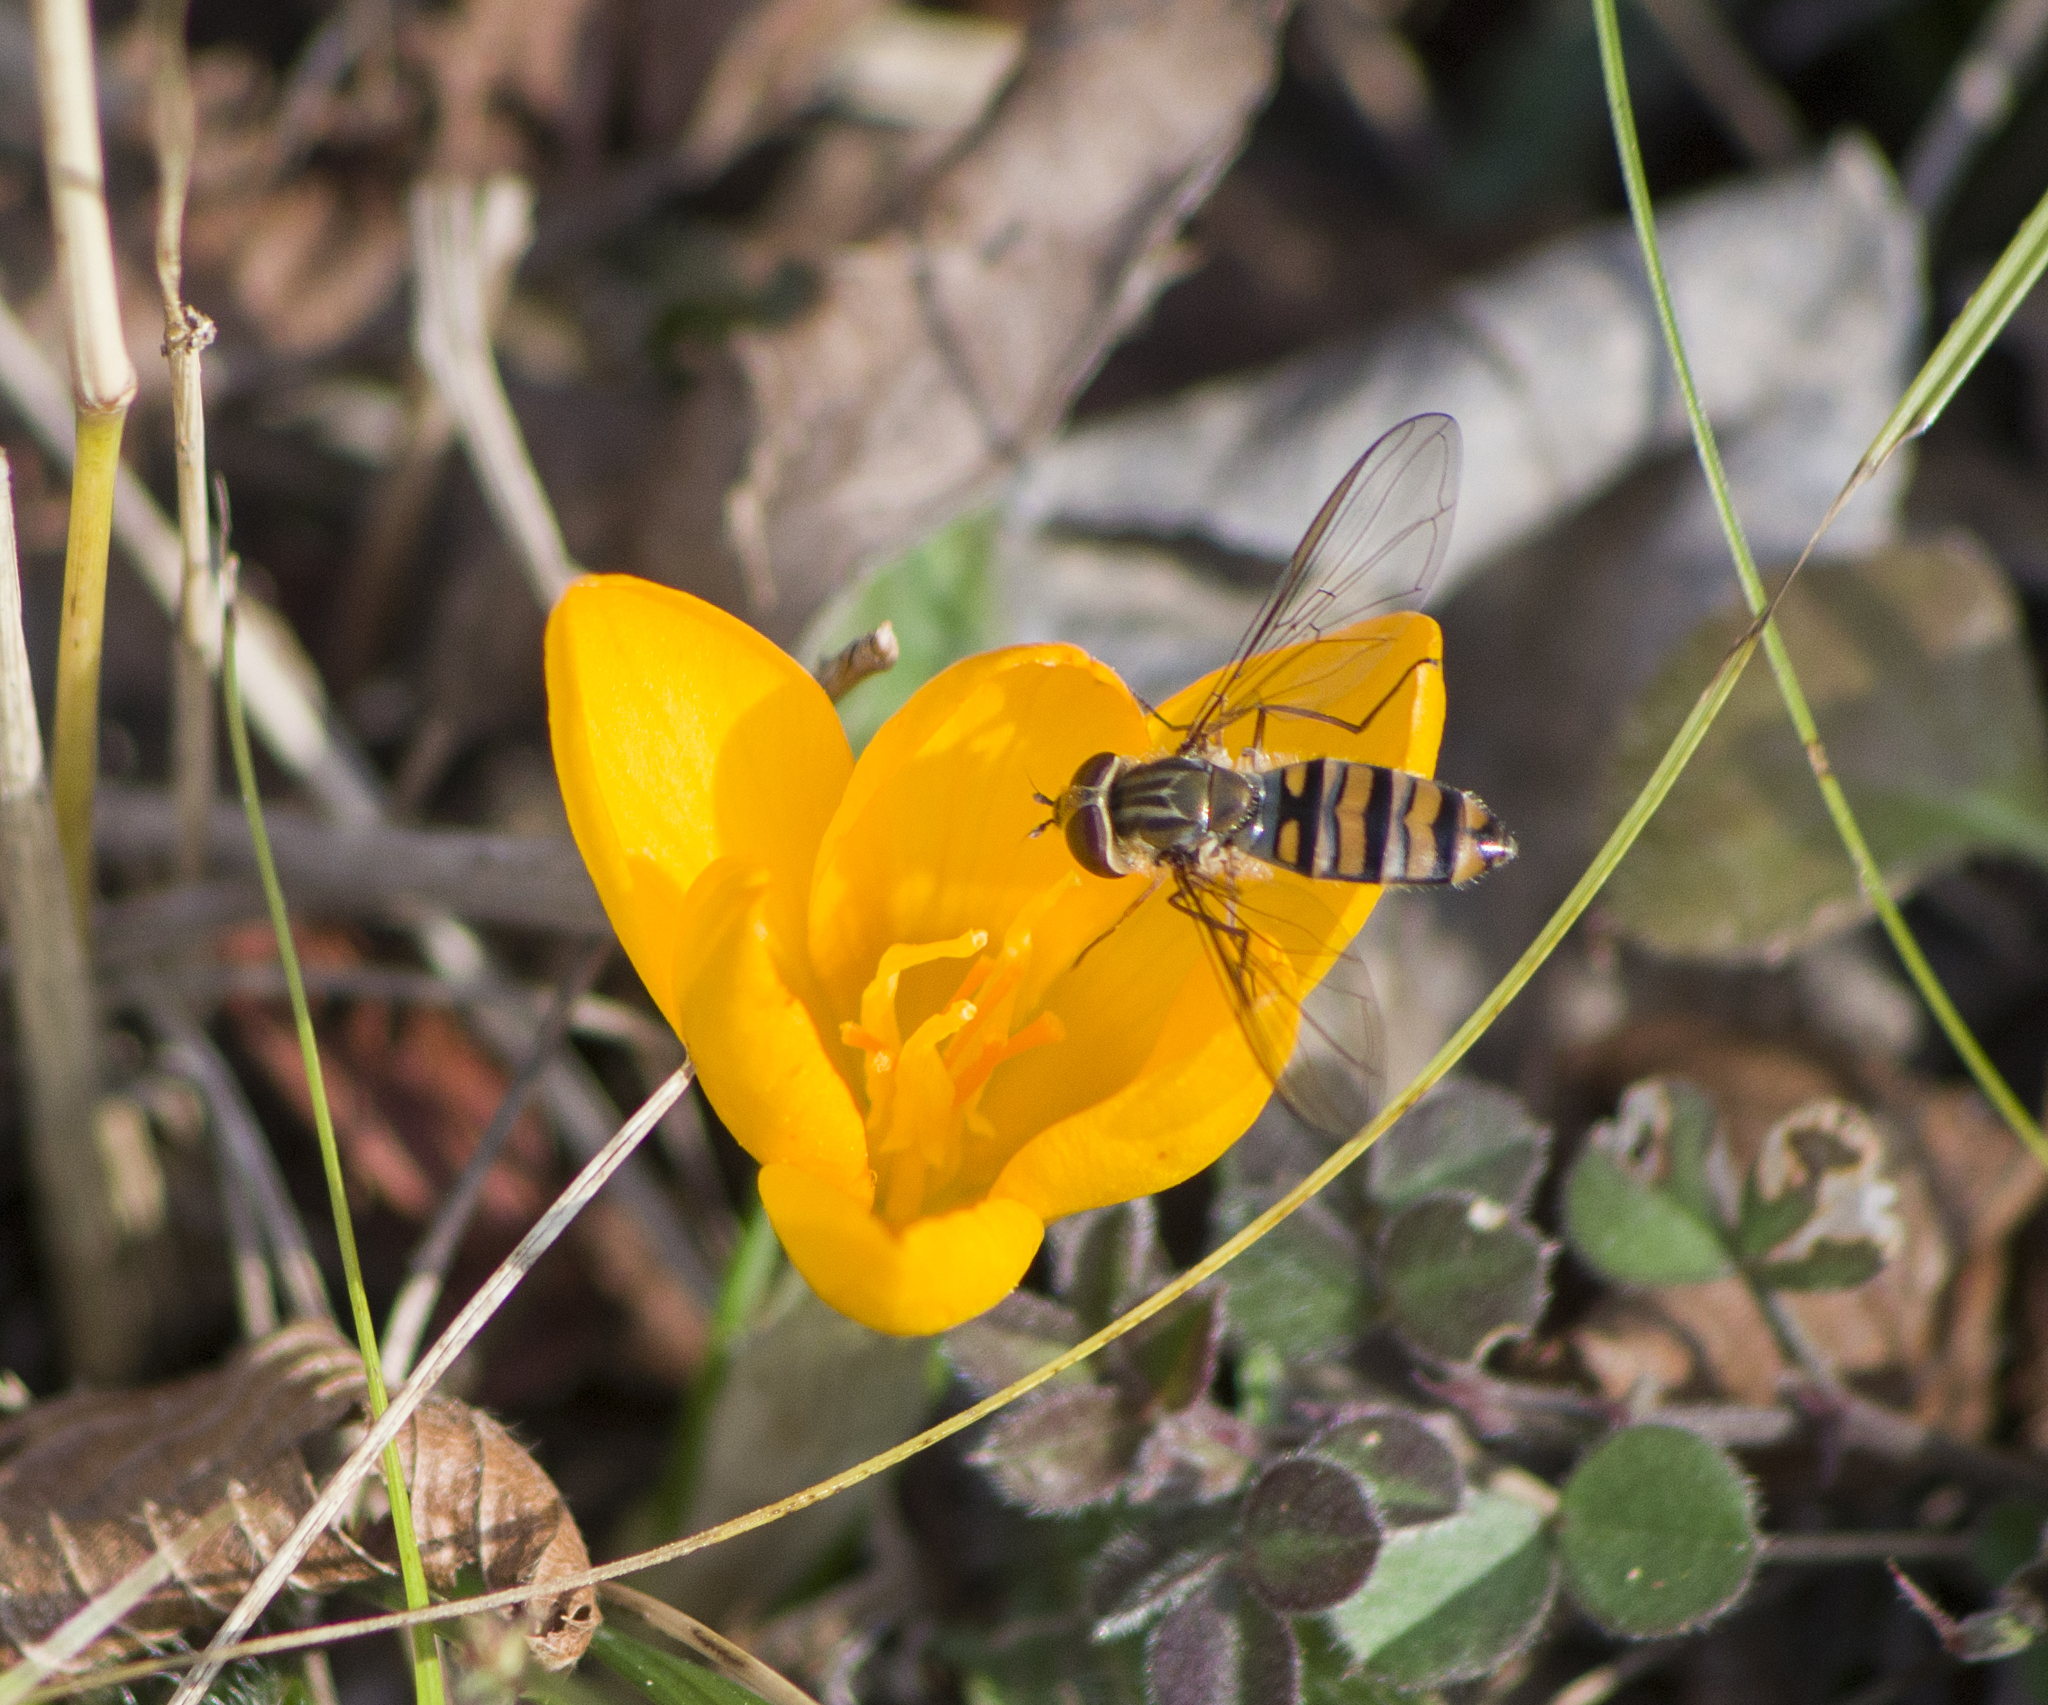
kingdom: Animalia
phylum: Arthropoda
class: Insecta
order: Diptera
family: Syrphidae
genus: Episyrphus
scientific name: Episyrphus balteatus
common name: Marmalade hoverfly
